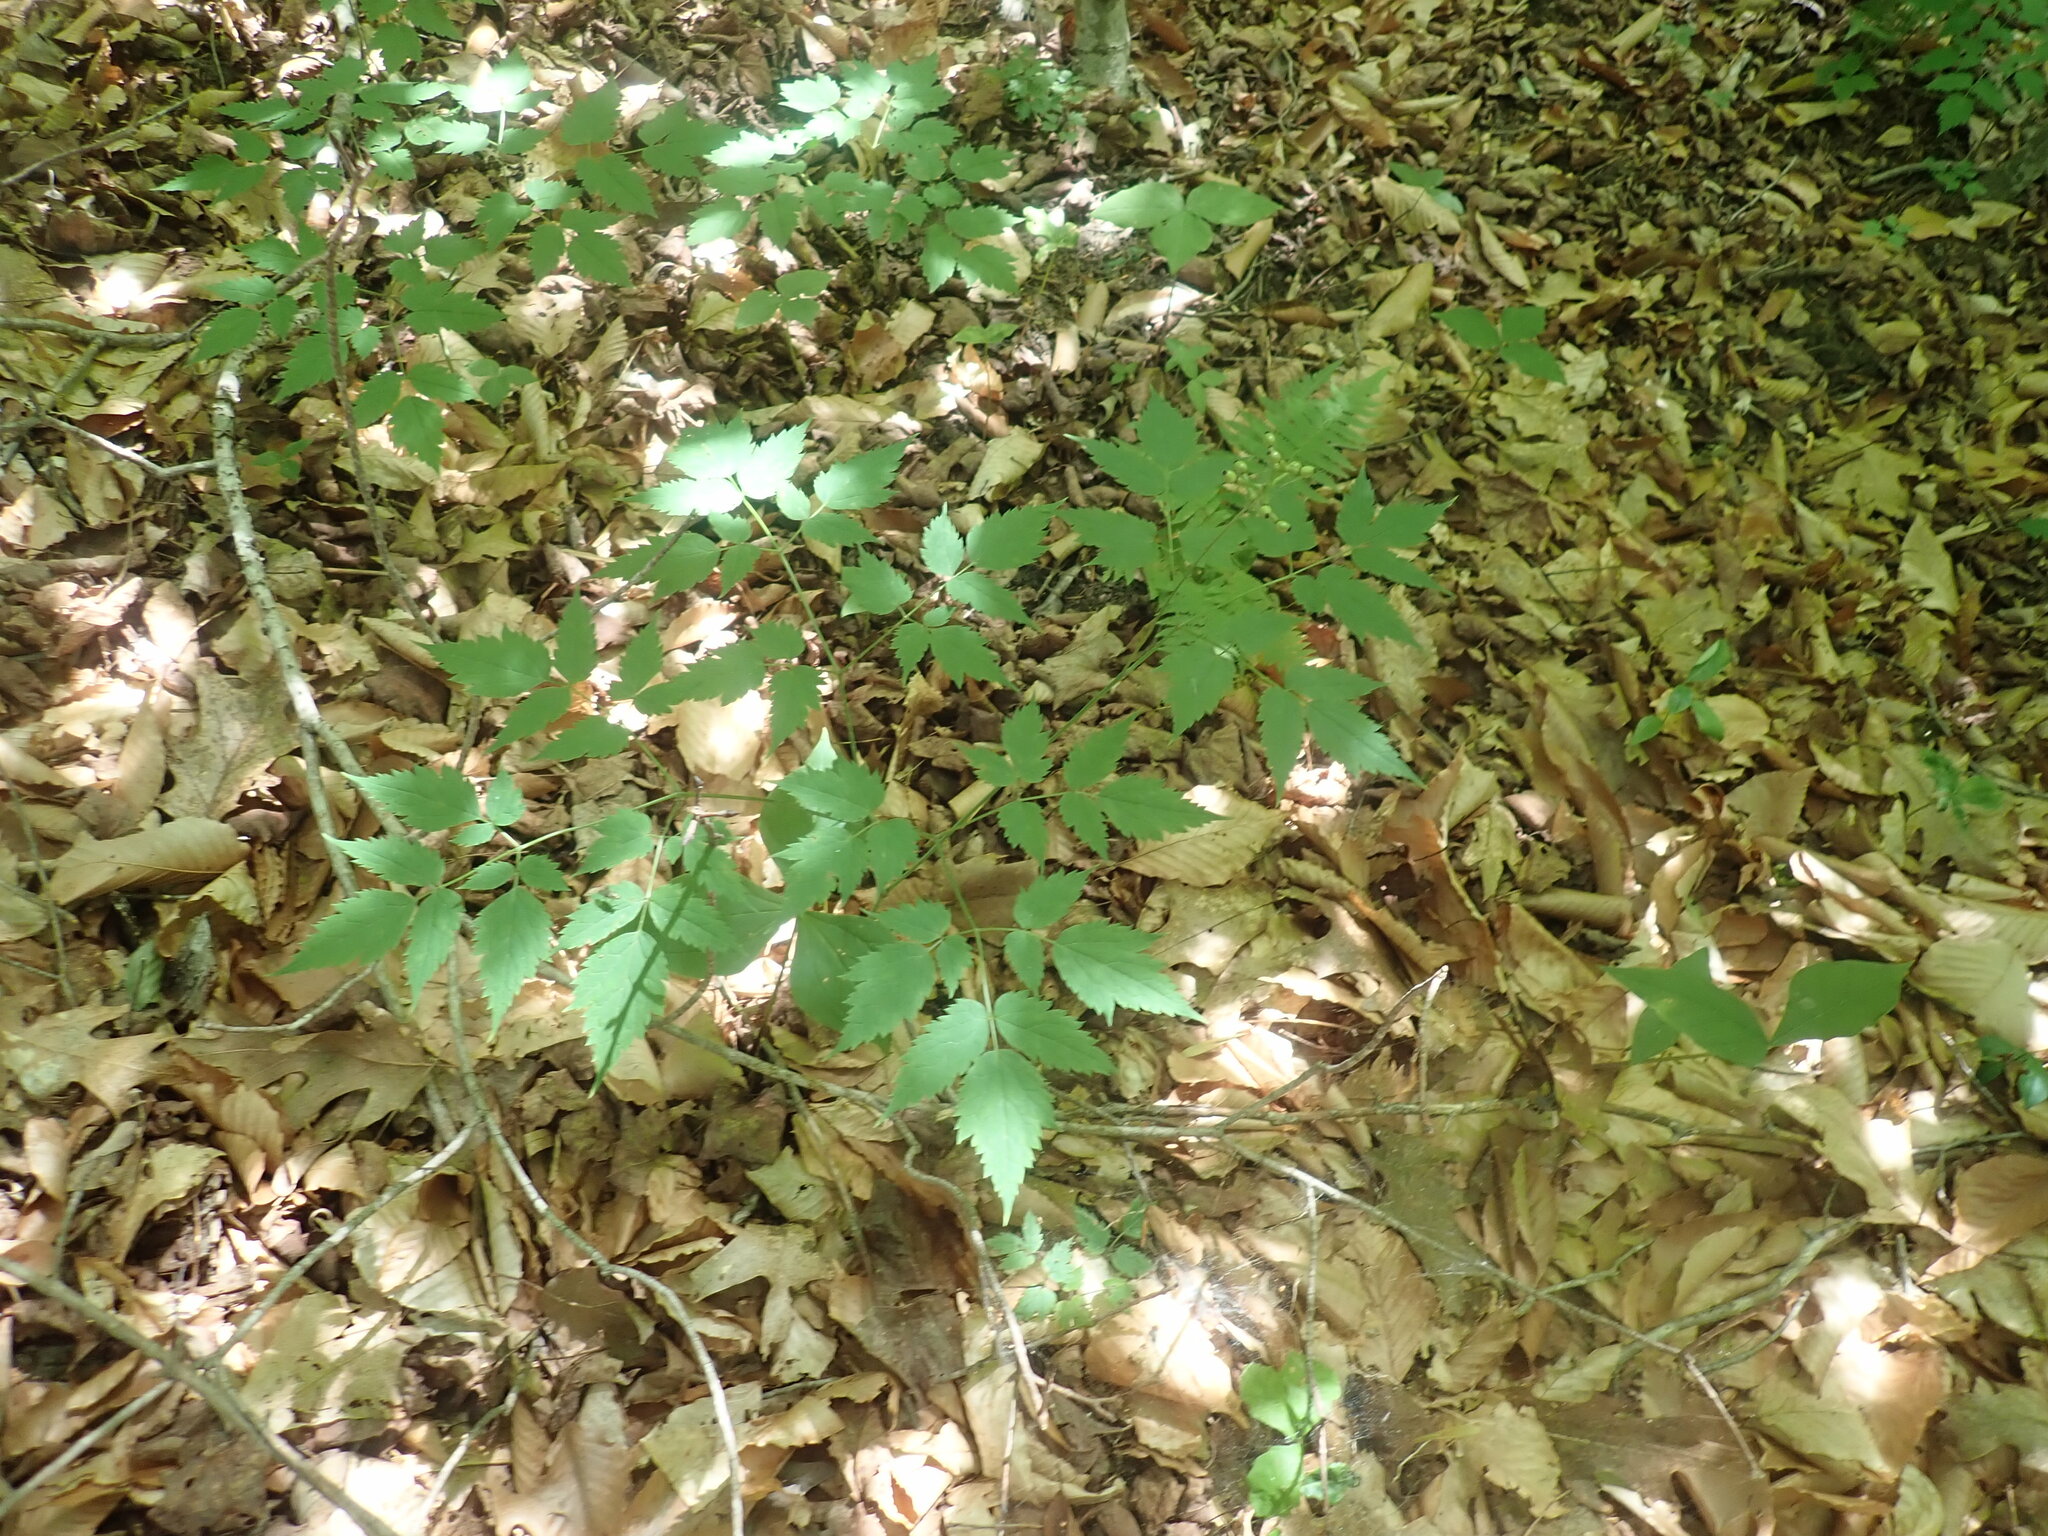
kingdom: Plantae
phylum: Tracheophyta
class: Magnoliopsida
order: Ranunculales
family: Ranunculaceae
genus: Actaea
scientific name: Actaea pachypoda
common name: Doll's-eyes
